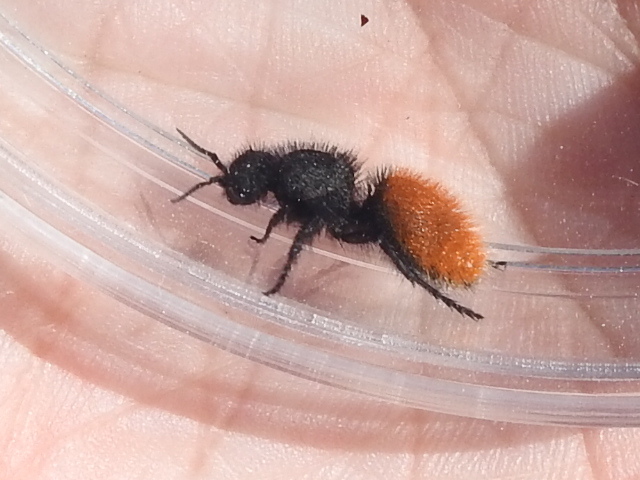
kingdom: Animalia
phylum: Arthropoda
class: Insecta
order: Hymenoptera
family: Mutillidae
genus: Dasymutilla
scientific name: Dasymutilla vestita
